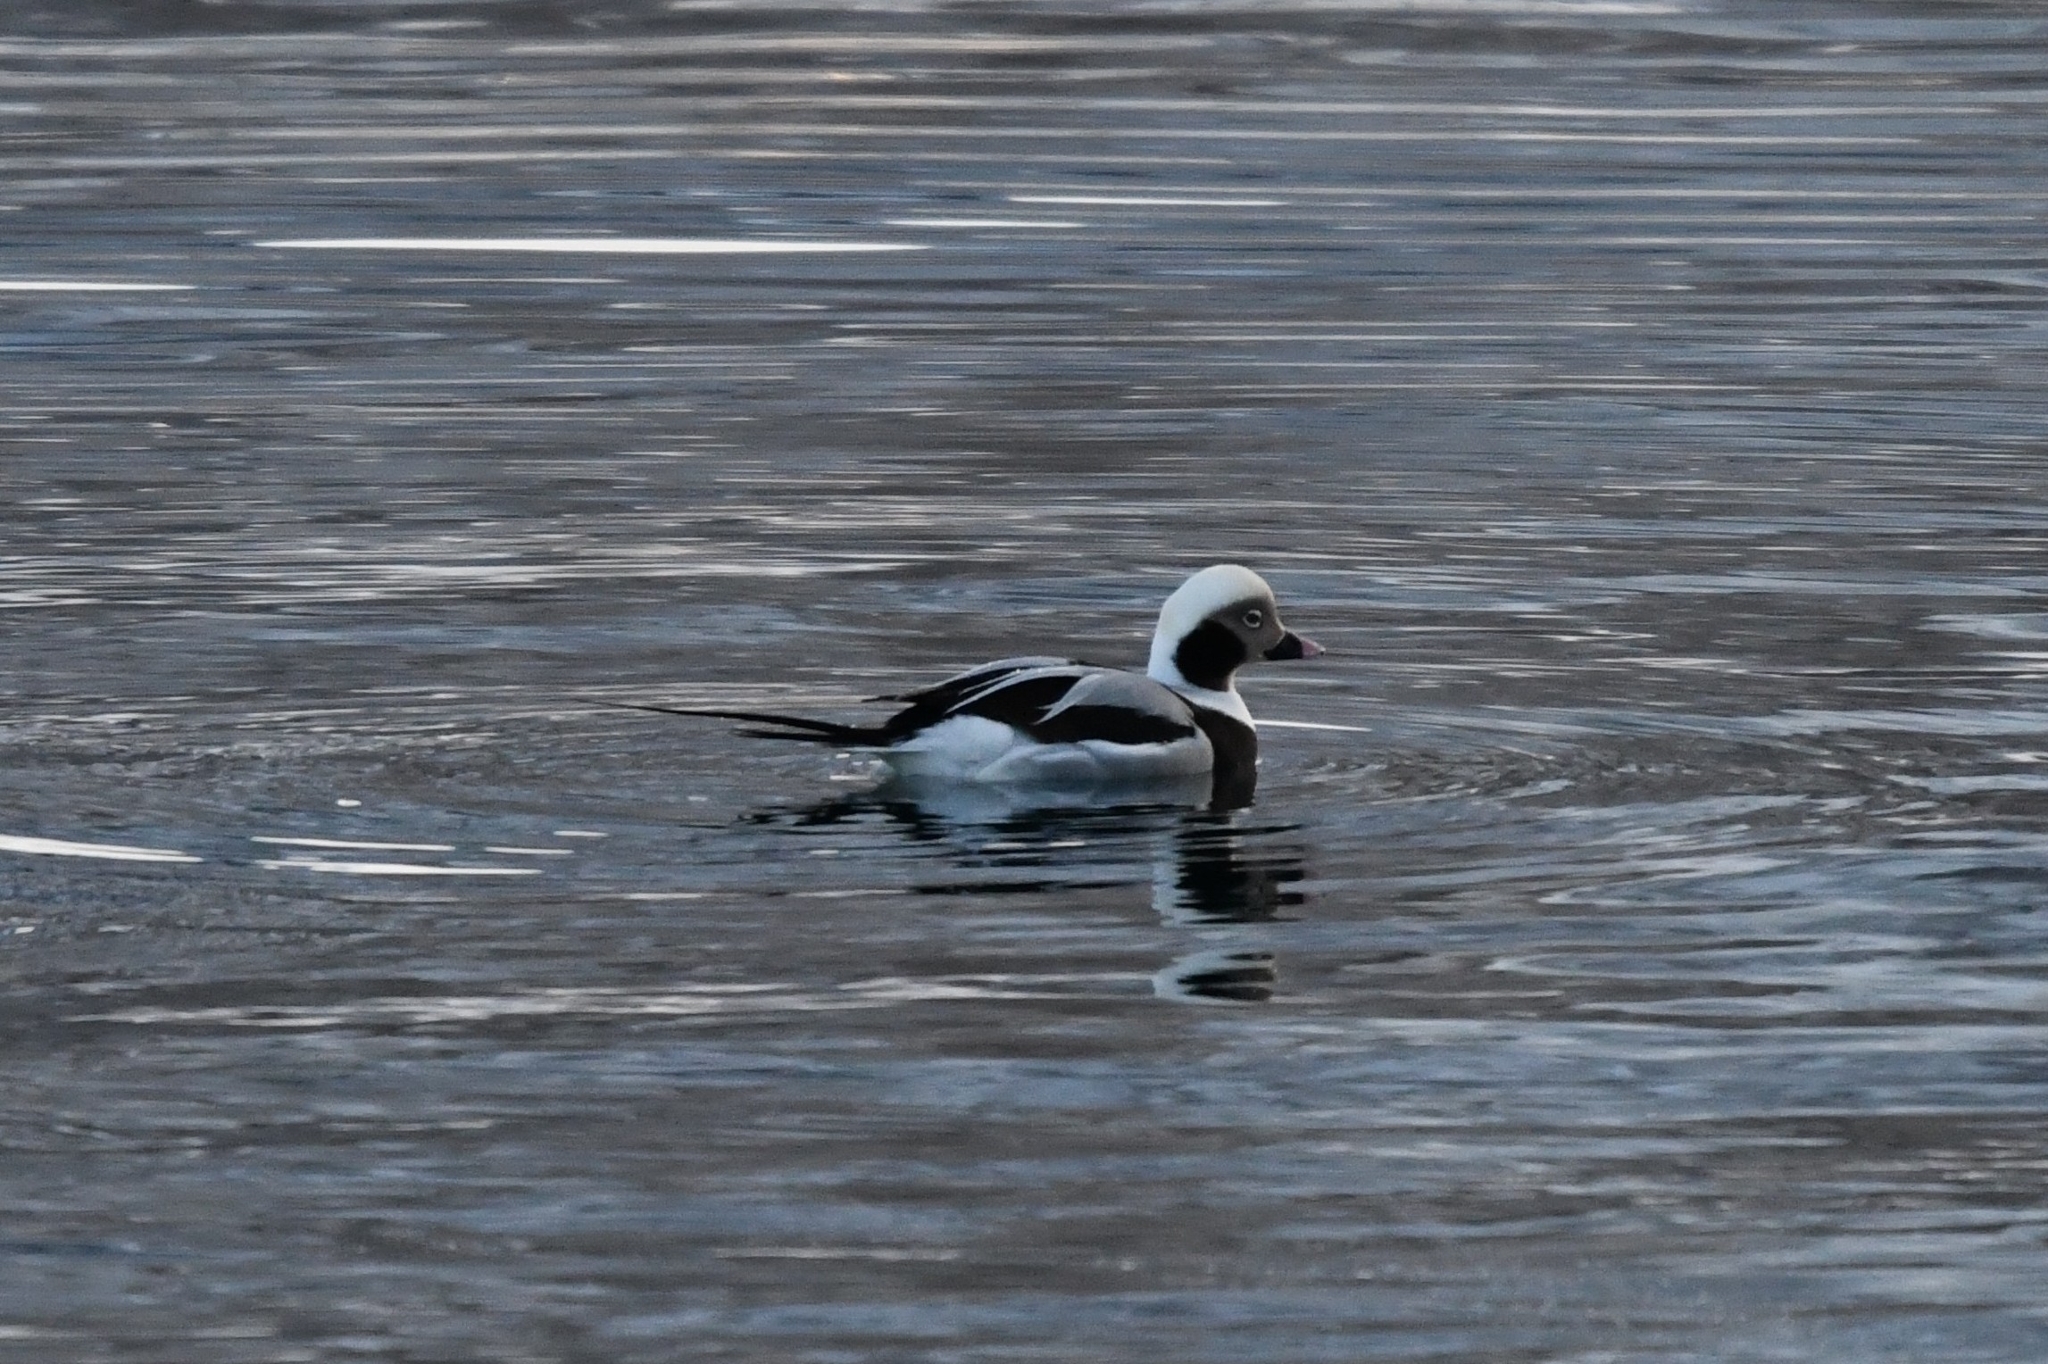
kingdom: Animalia
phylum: Chordata
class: Aves
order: Anseriformes
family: Anatidae
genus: Clangula
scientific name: Clangula hyemalis
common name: Long-tailed duck
